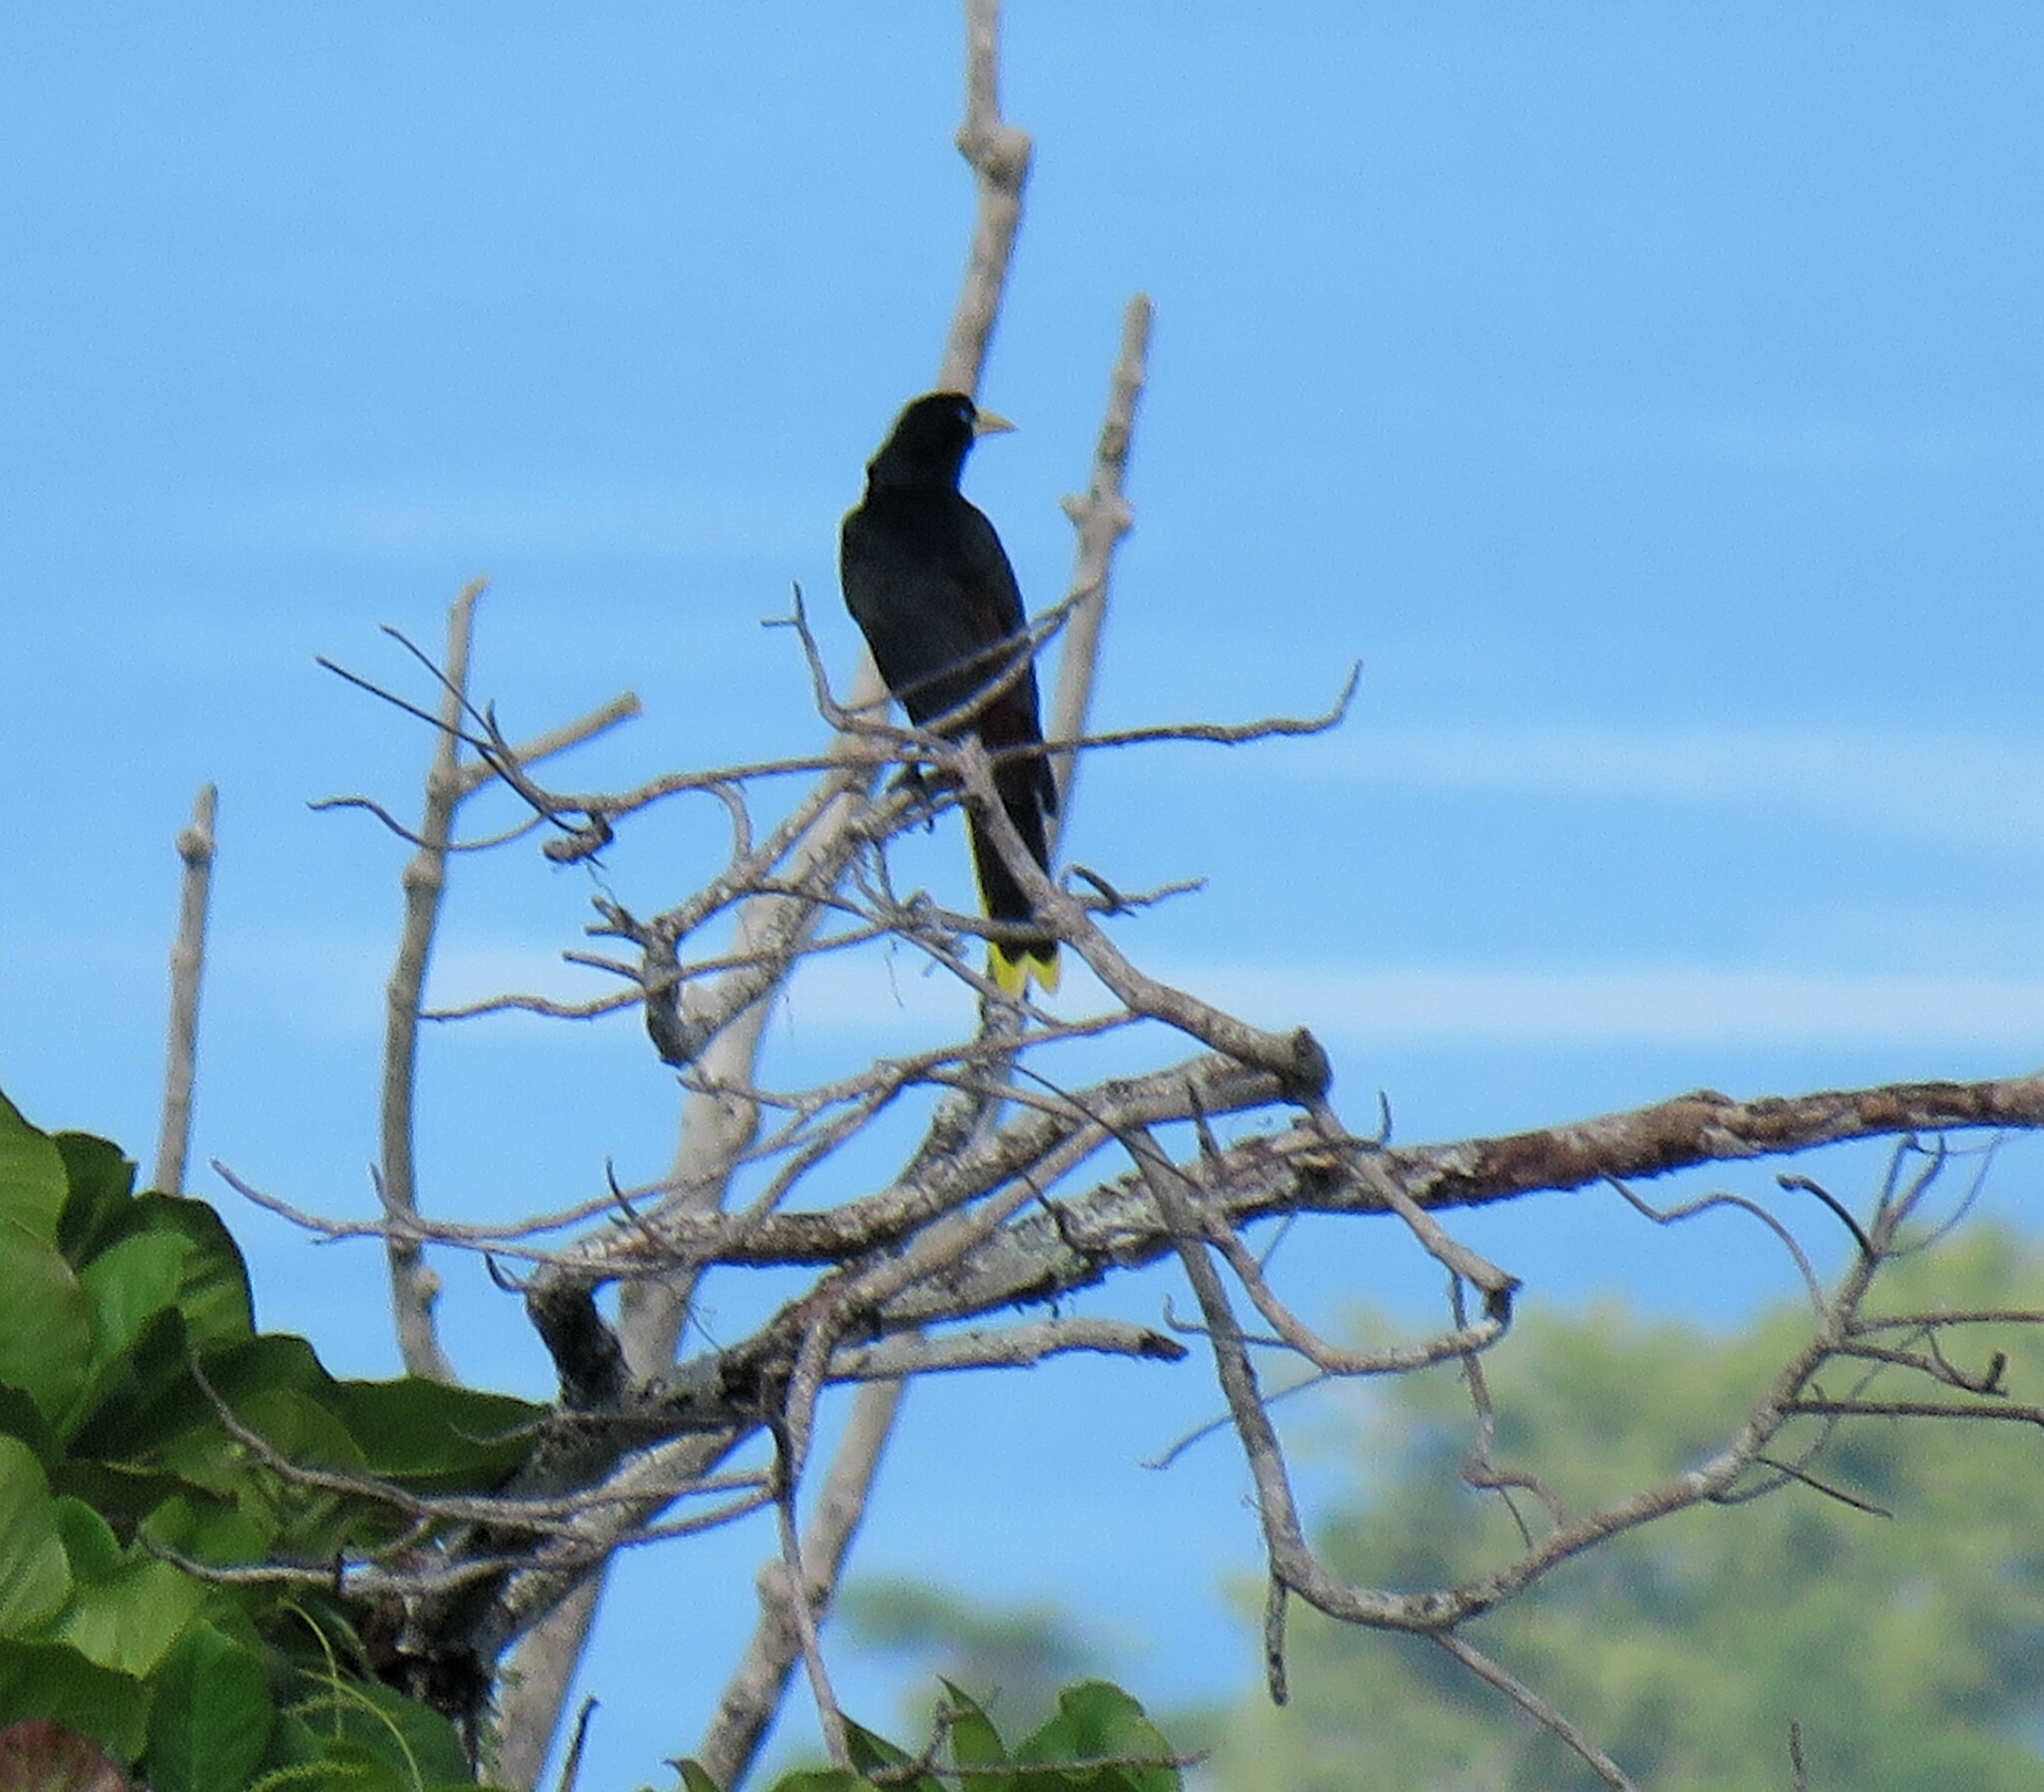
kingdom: Animalia
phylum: Chordata
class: Aves
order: Passeriformes
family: Icteridae
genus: Psarocolius
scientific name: Psarocolius wagleri
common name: Chestnut-headed oropendola
